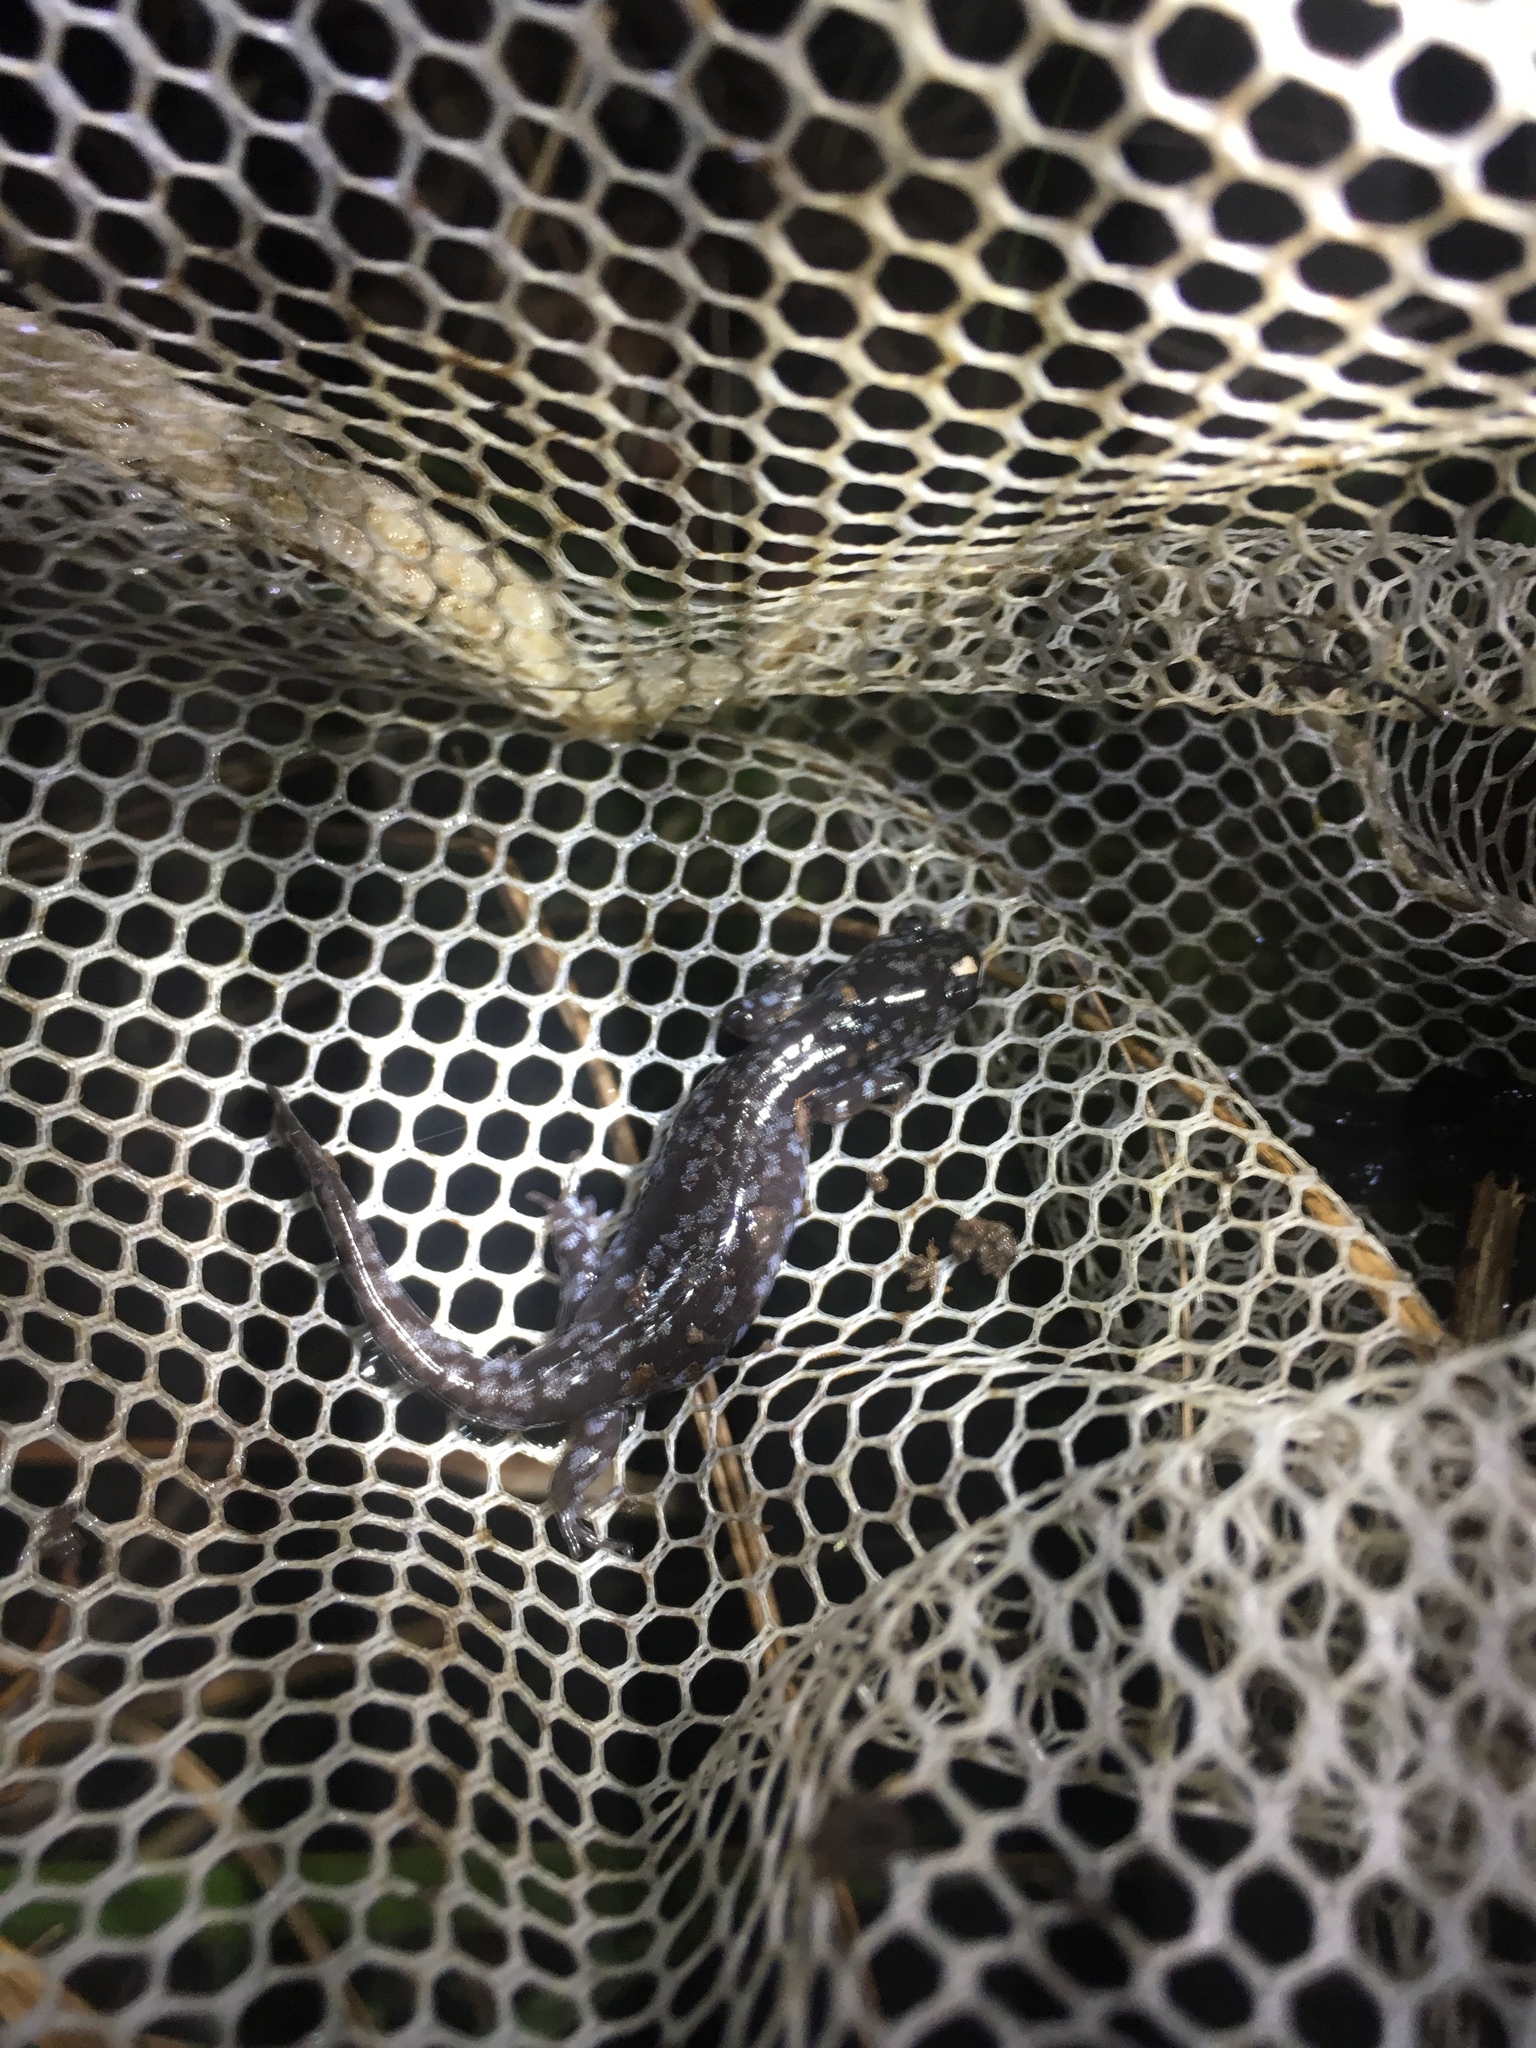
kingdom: Animalia
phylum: Chordata
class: Amphibia
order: Caudata
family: Ambystomatidae
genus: Ambystoma
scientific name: Ambystoma mabeei
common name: Mabee's salamander
